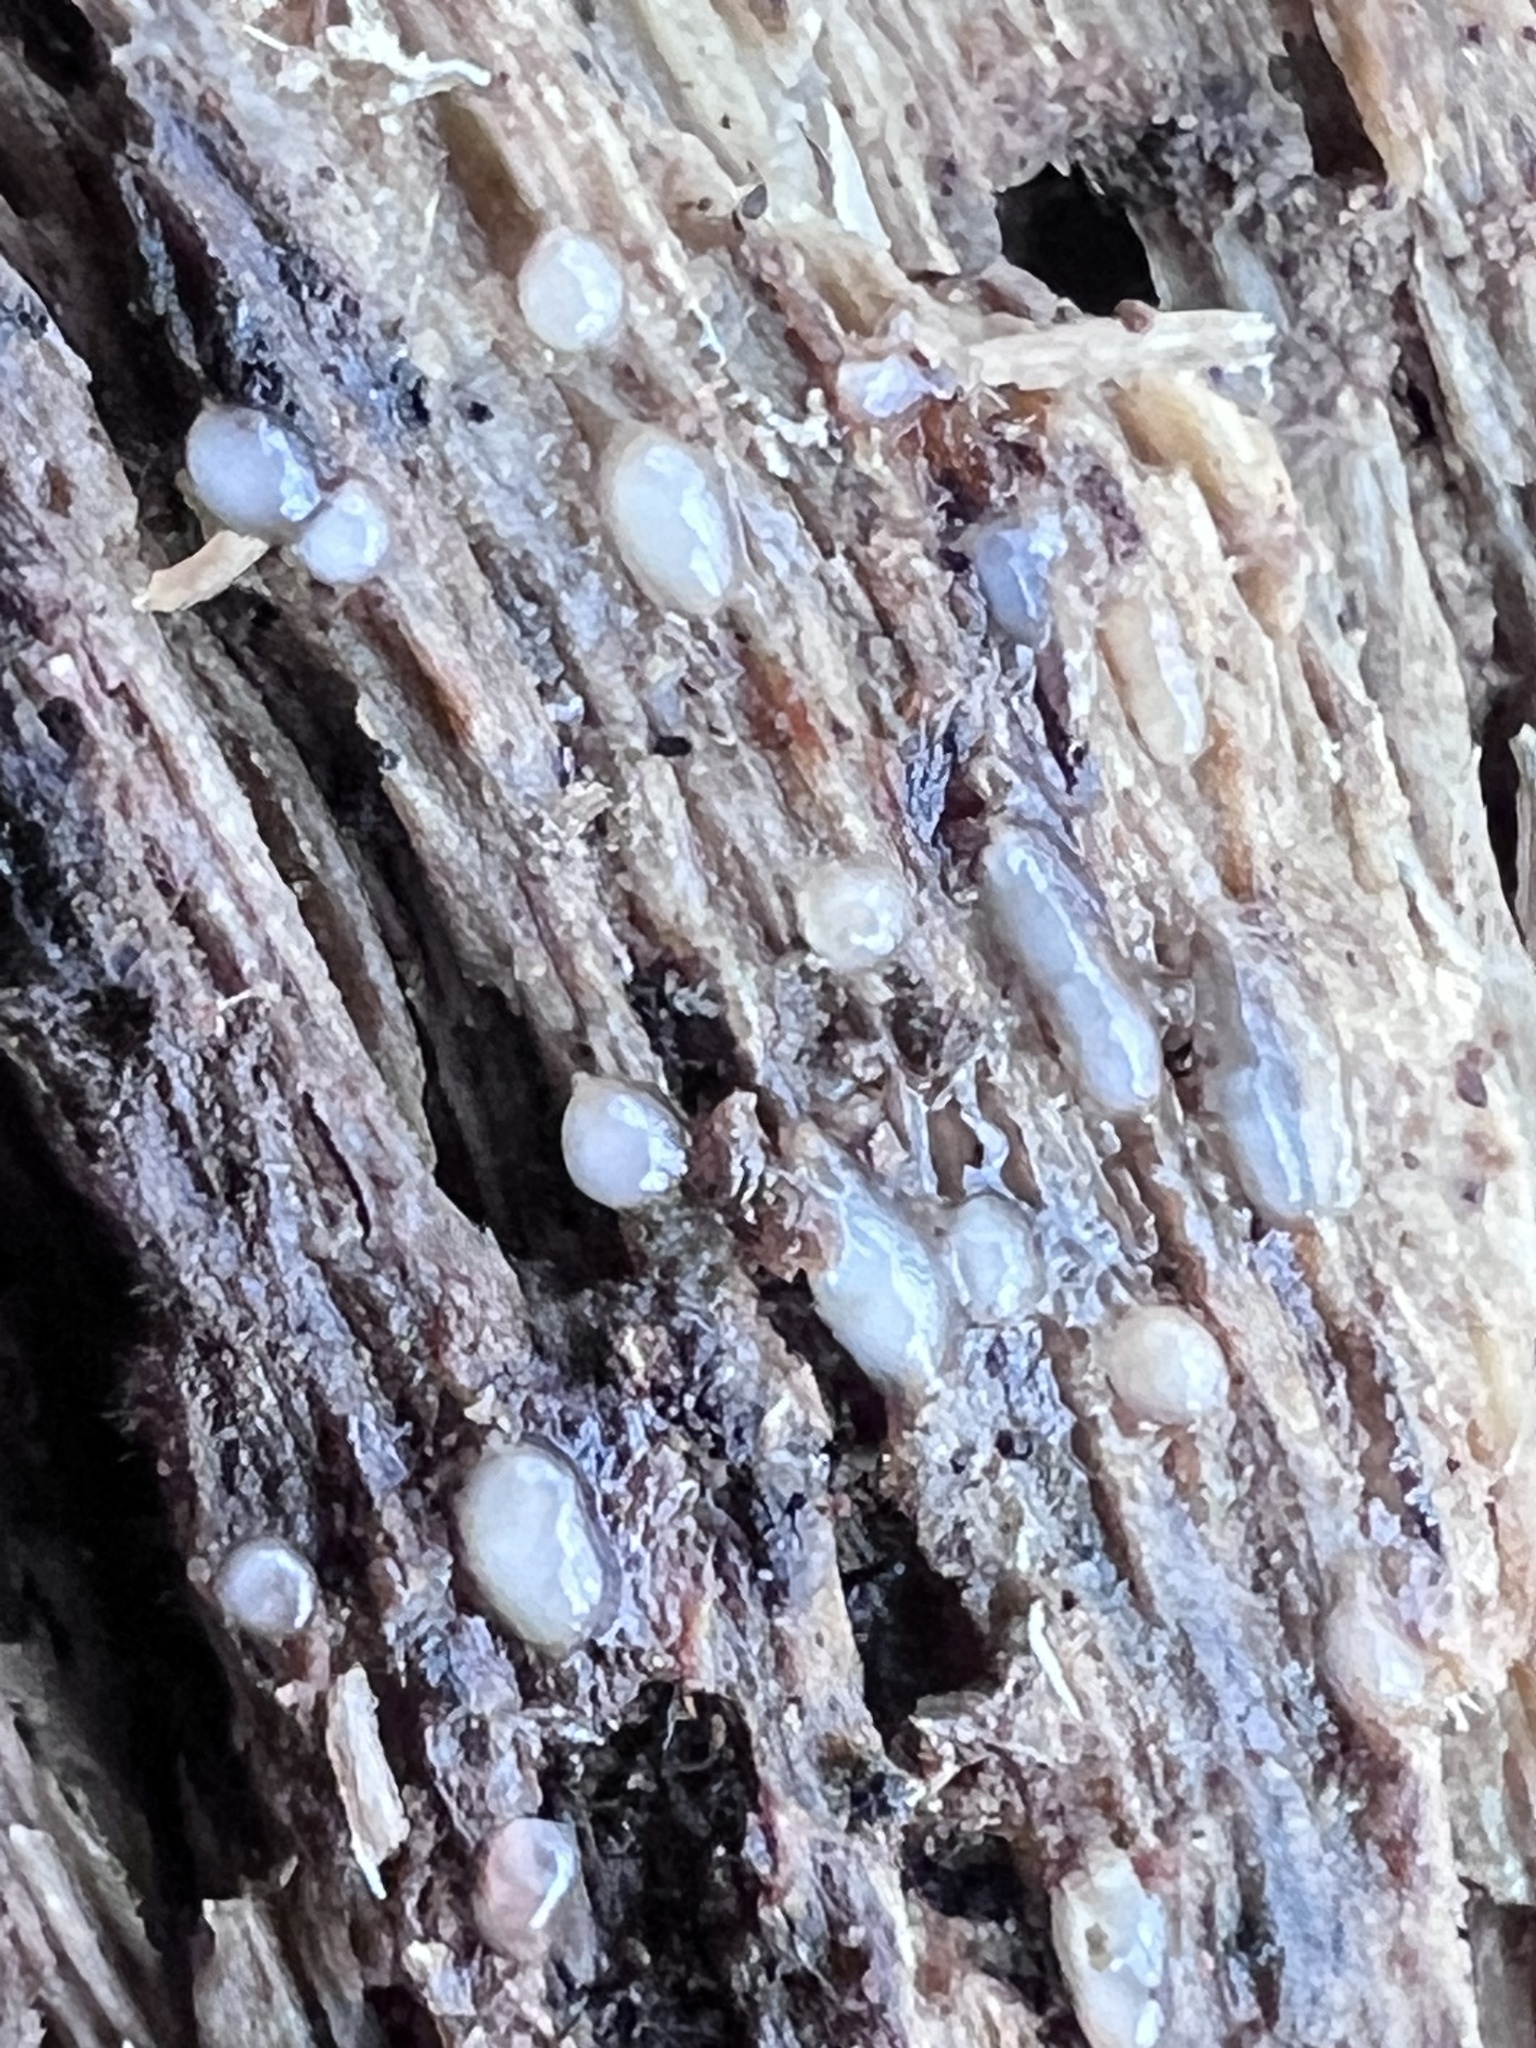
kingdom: Fungi
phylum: Basidiomycota
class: Atractiellomycetes
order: Atractiellales
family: Phleogenaceae
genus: Helicogloea
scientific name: Helicogloea compressa
